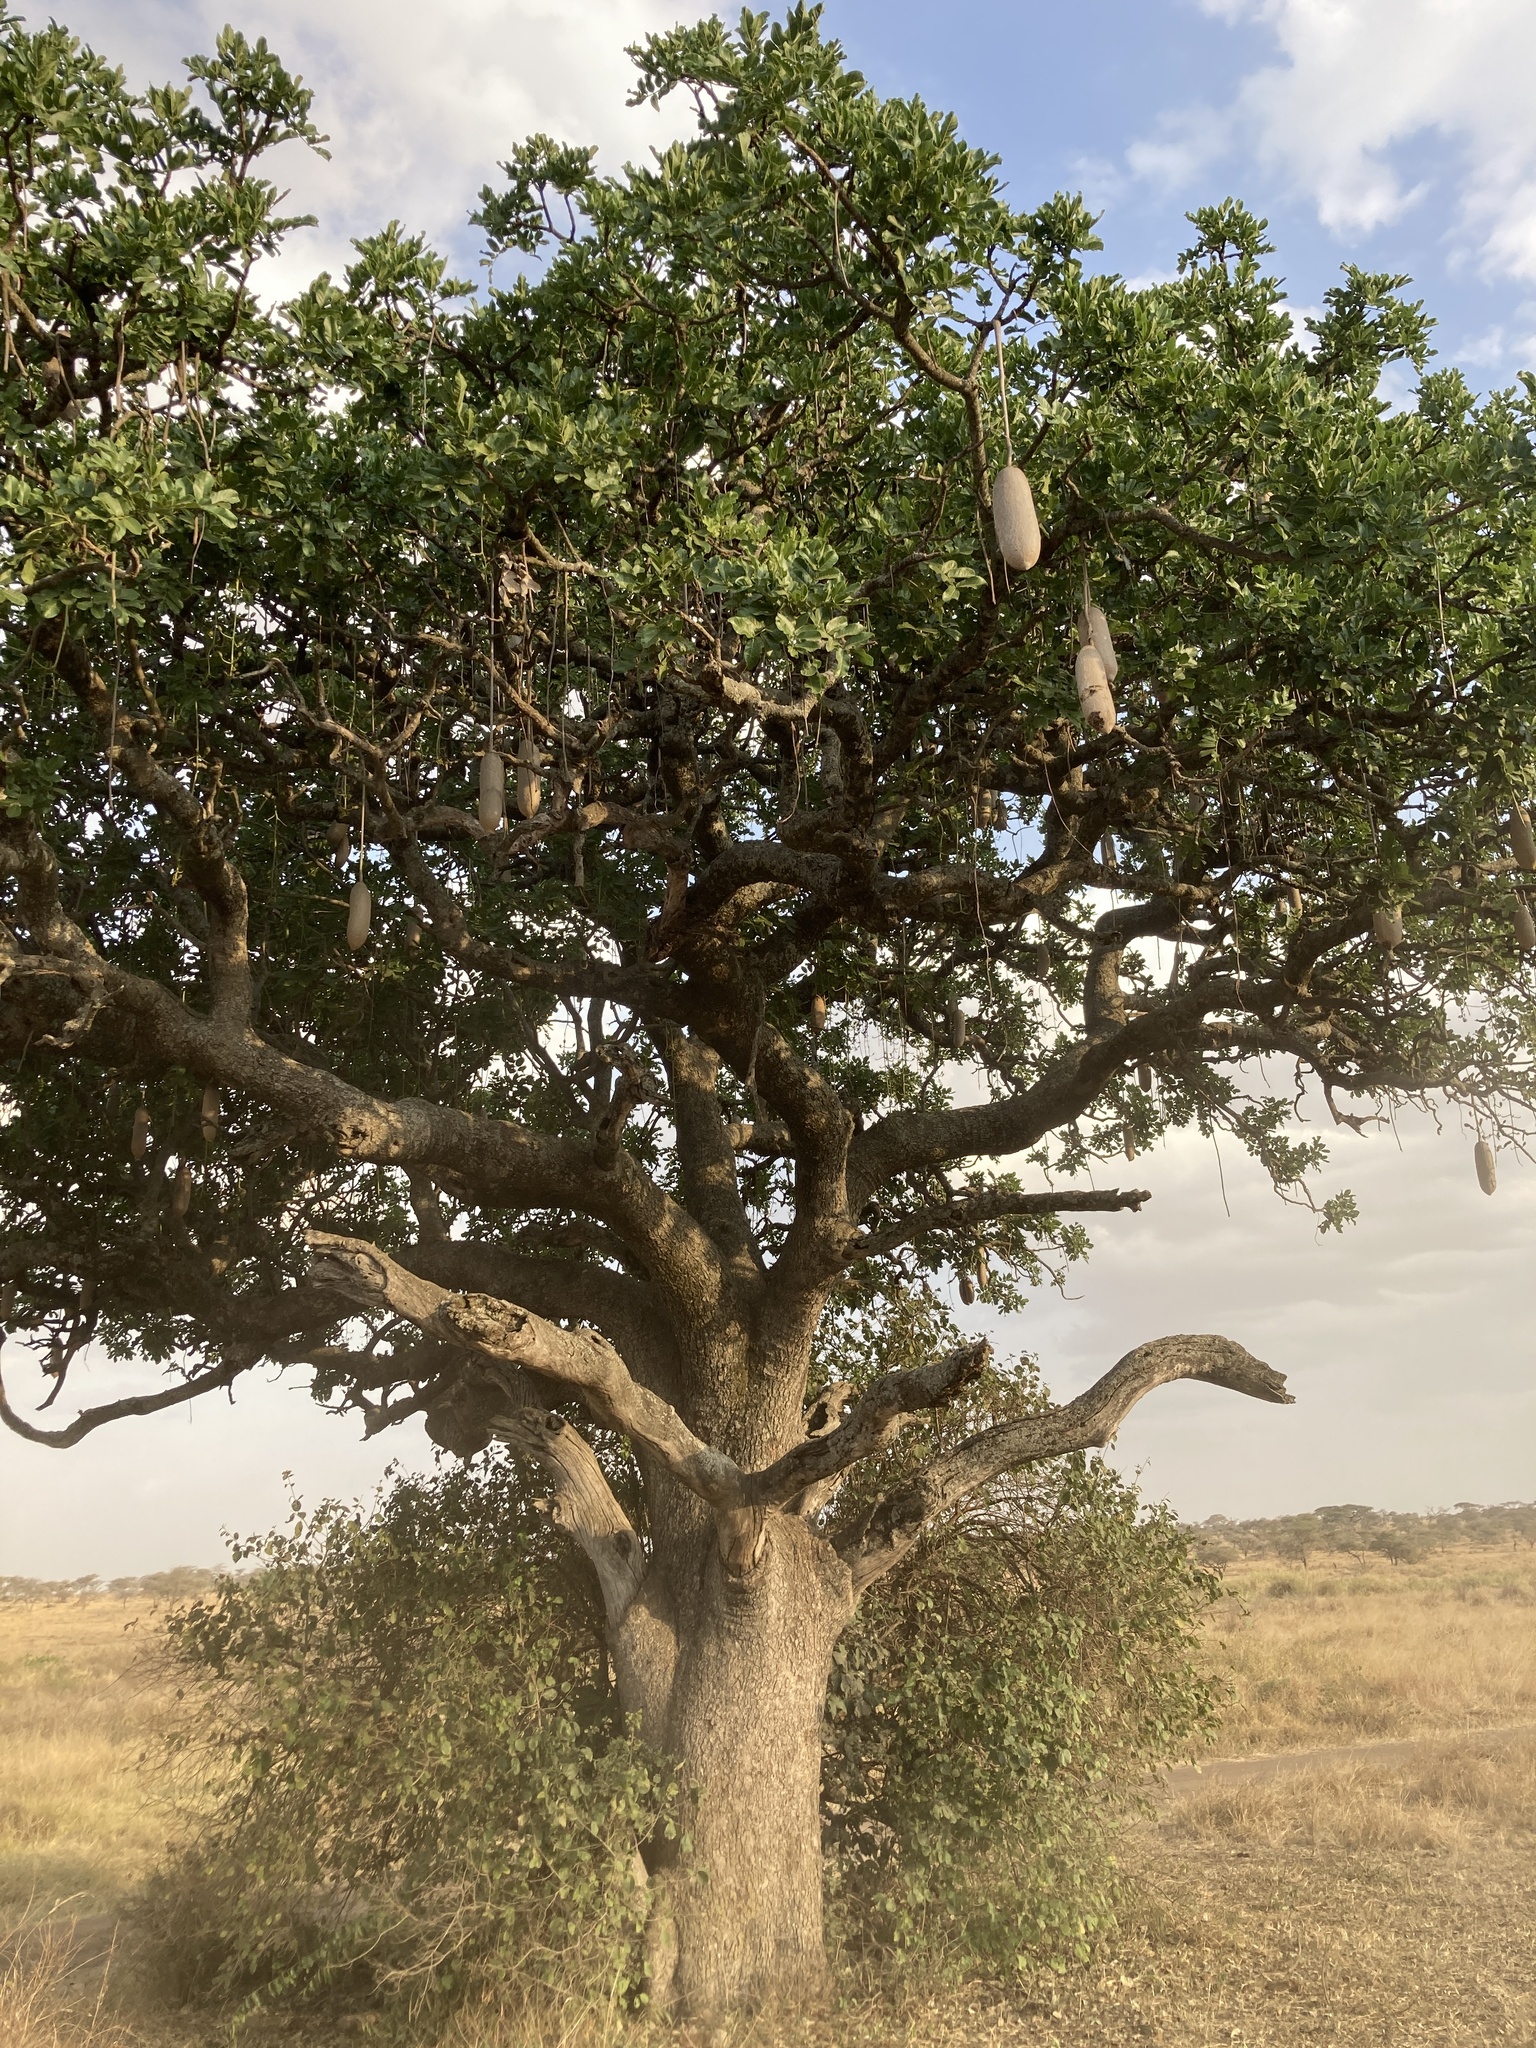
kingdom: Plantae
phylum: Tracheophyta
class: Magnoliopsida
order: Lamiales
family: Bignoniaceae
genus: Kigelia
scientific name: Kigelia africana
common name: Sausage tree
